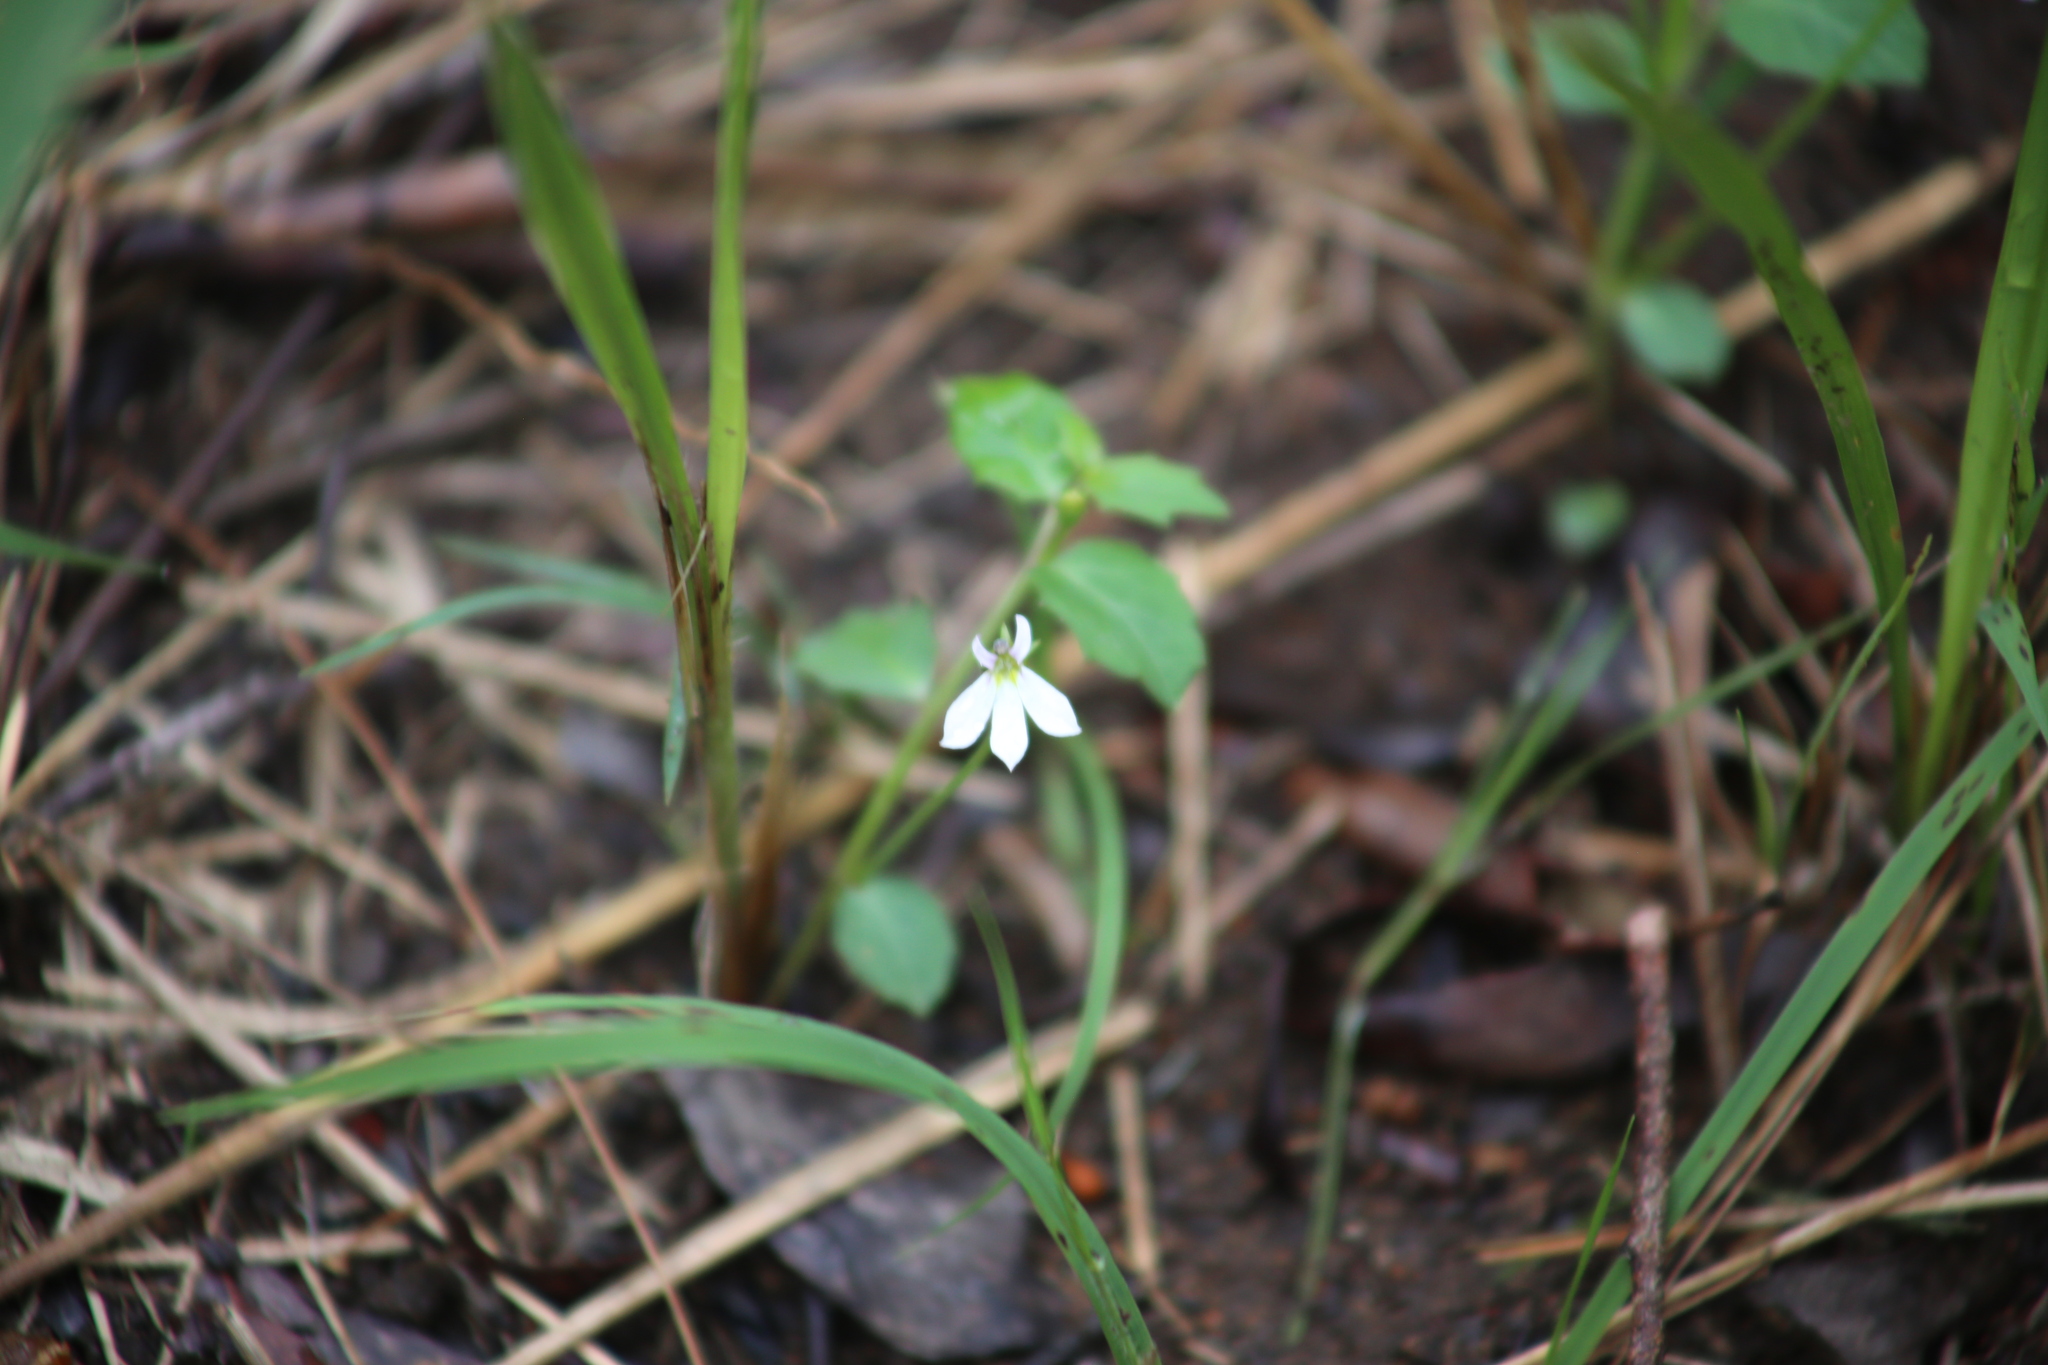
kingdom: Plantae
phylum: Tracheophyta
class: Magnoliopsida
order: Asterales
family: Campanulaceae
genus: Lobelia
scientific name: Lobelia purpurascens
